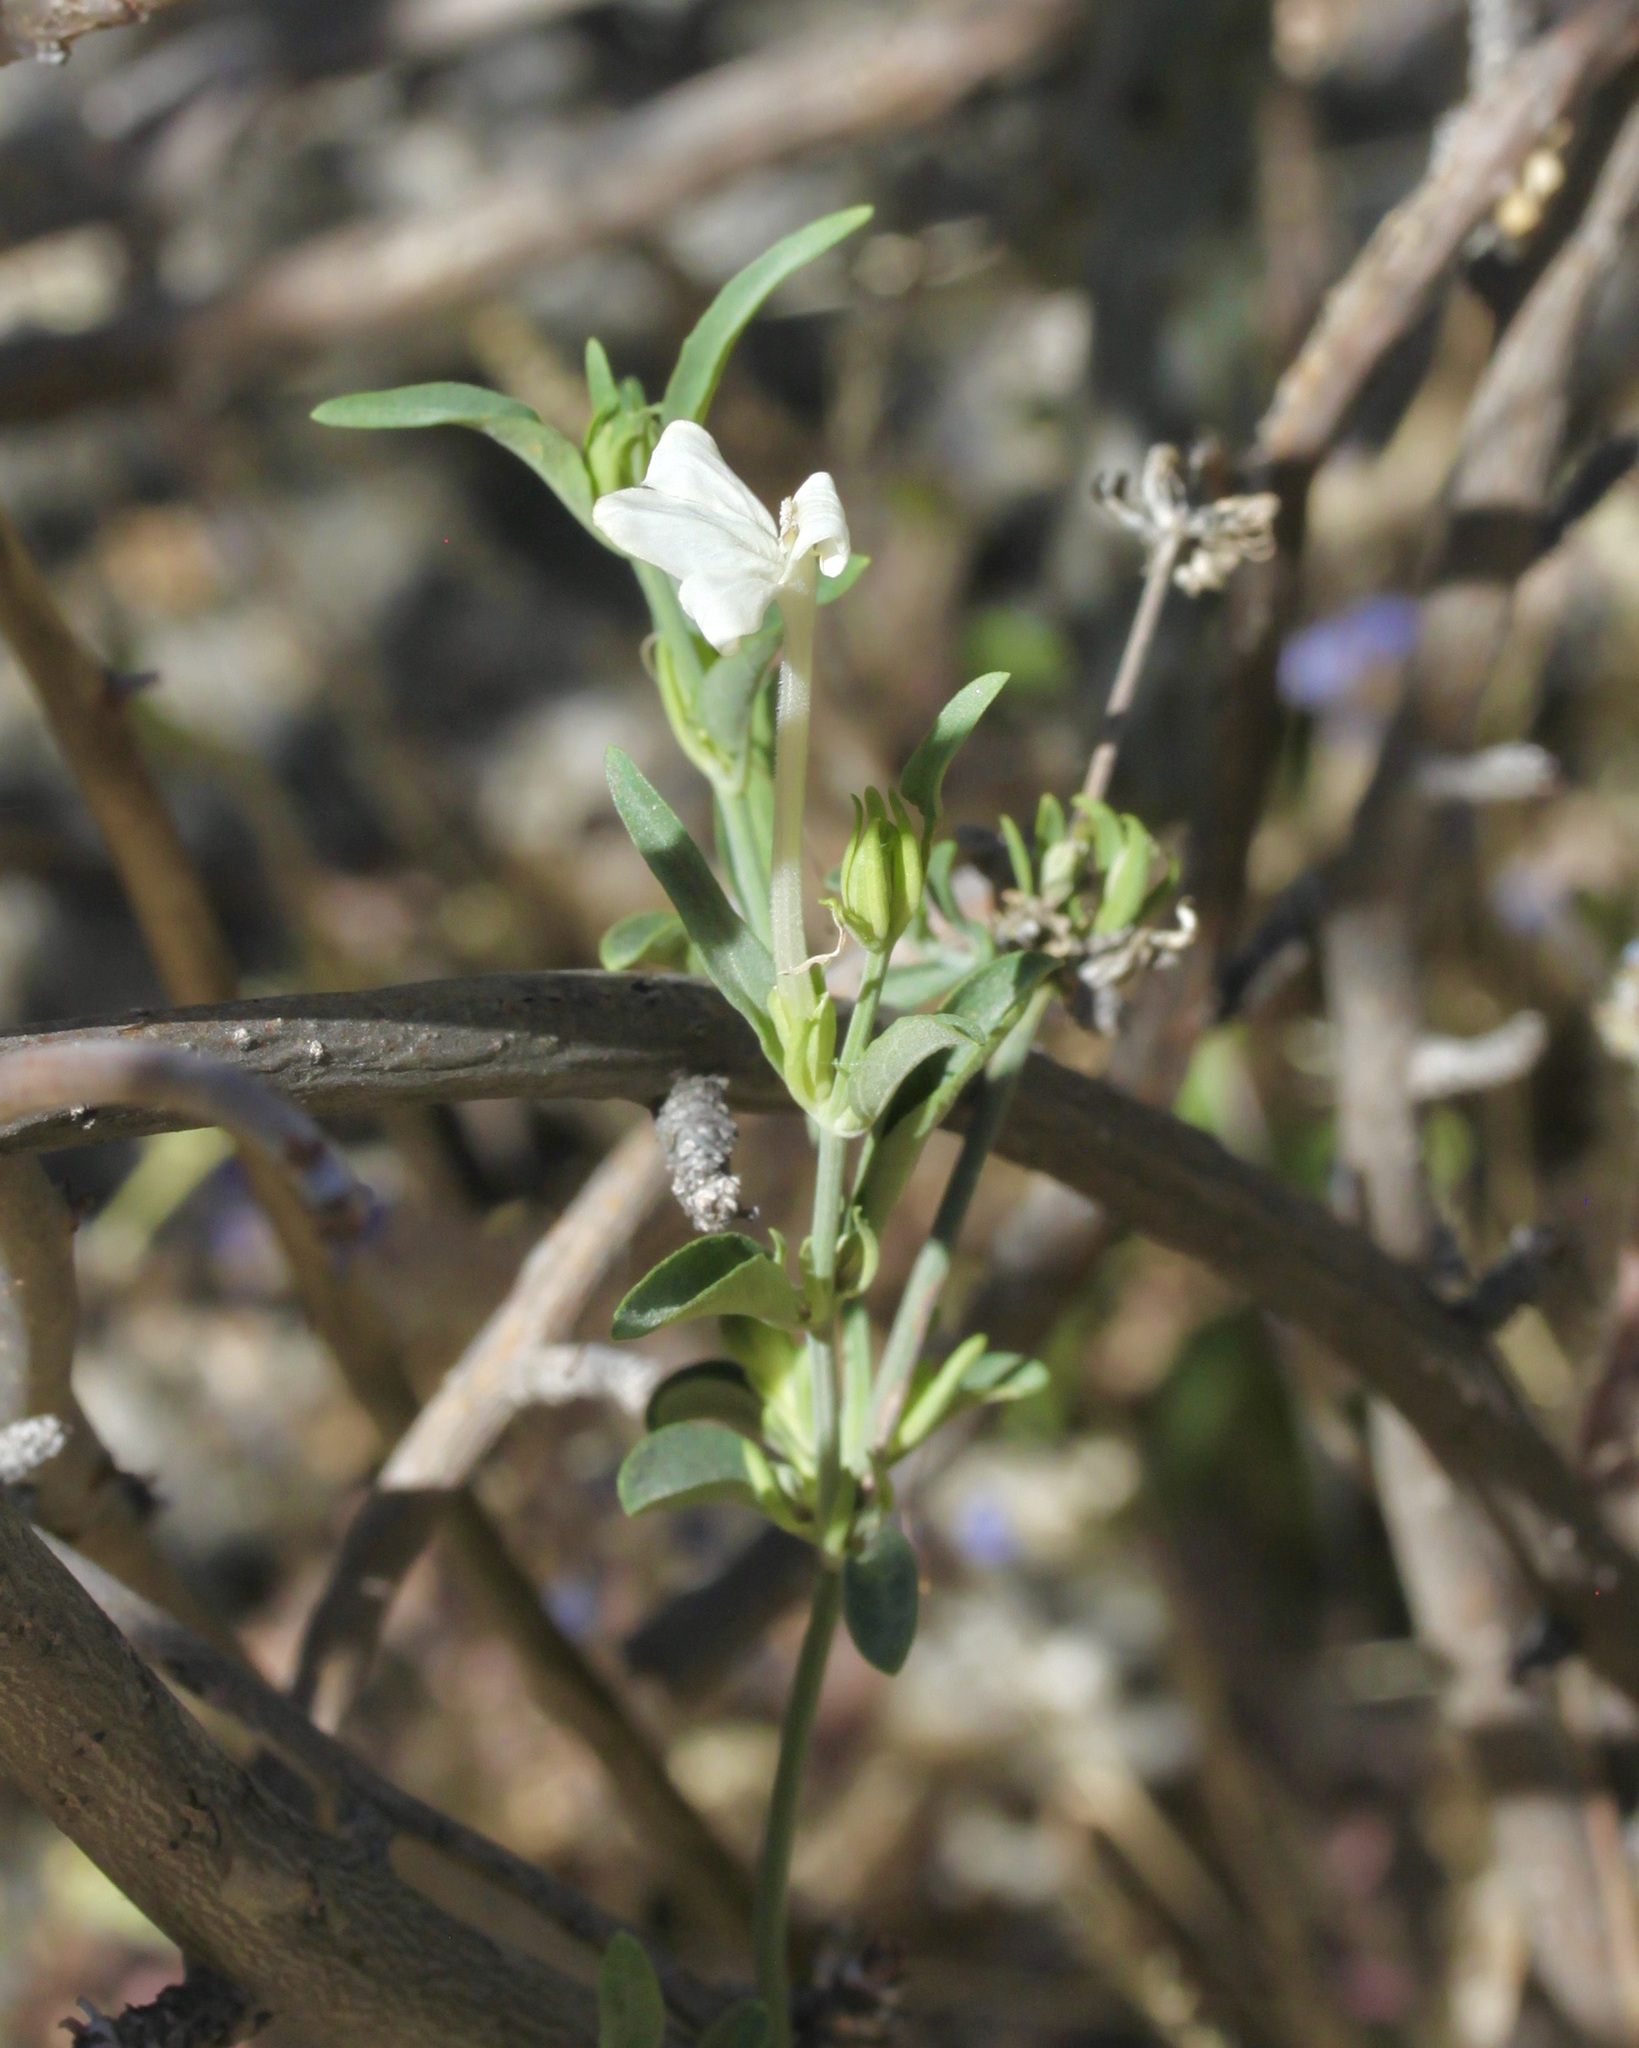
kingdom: Plantae
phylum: Tracheophyta
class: Magnoliopsida
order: Lamiales
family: Acanthaceae
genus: Justicia
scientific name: Justicia longii
